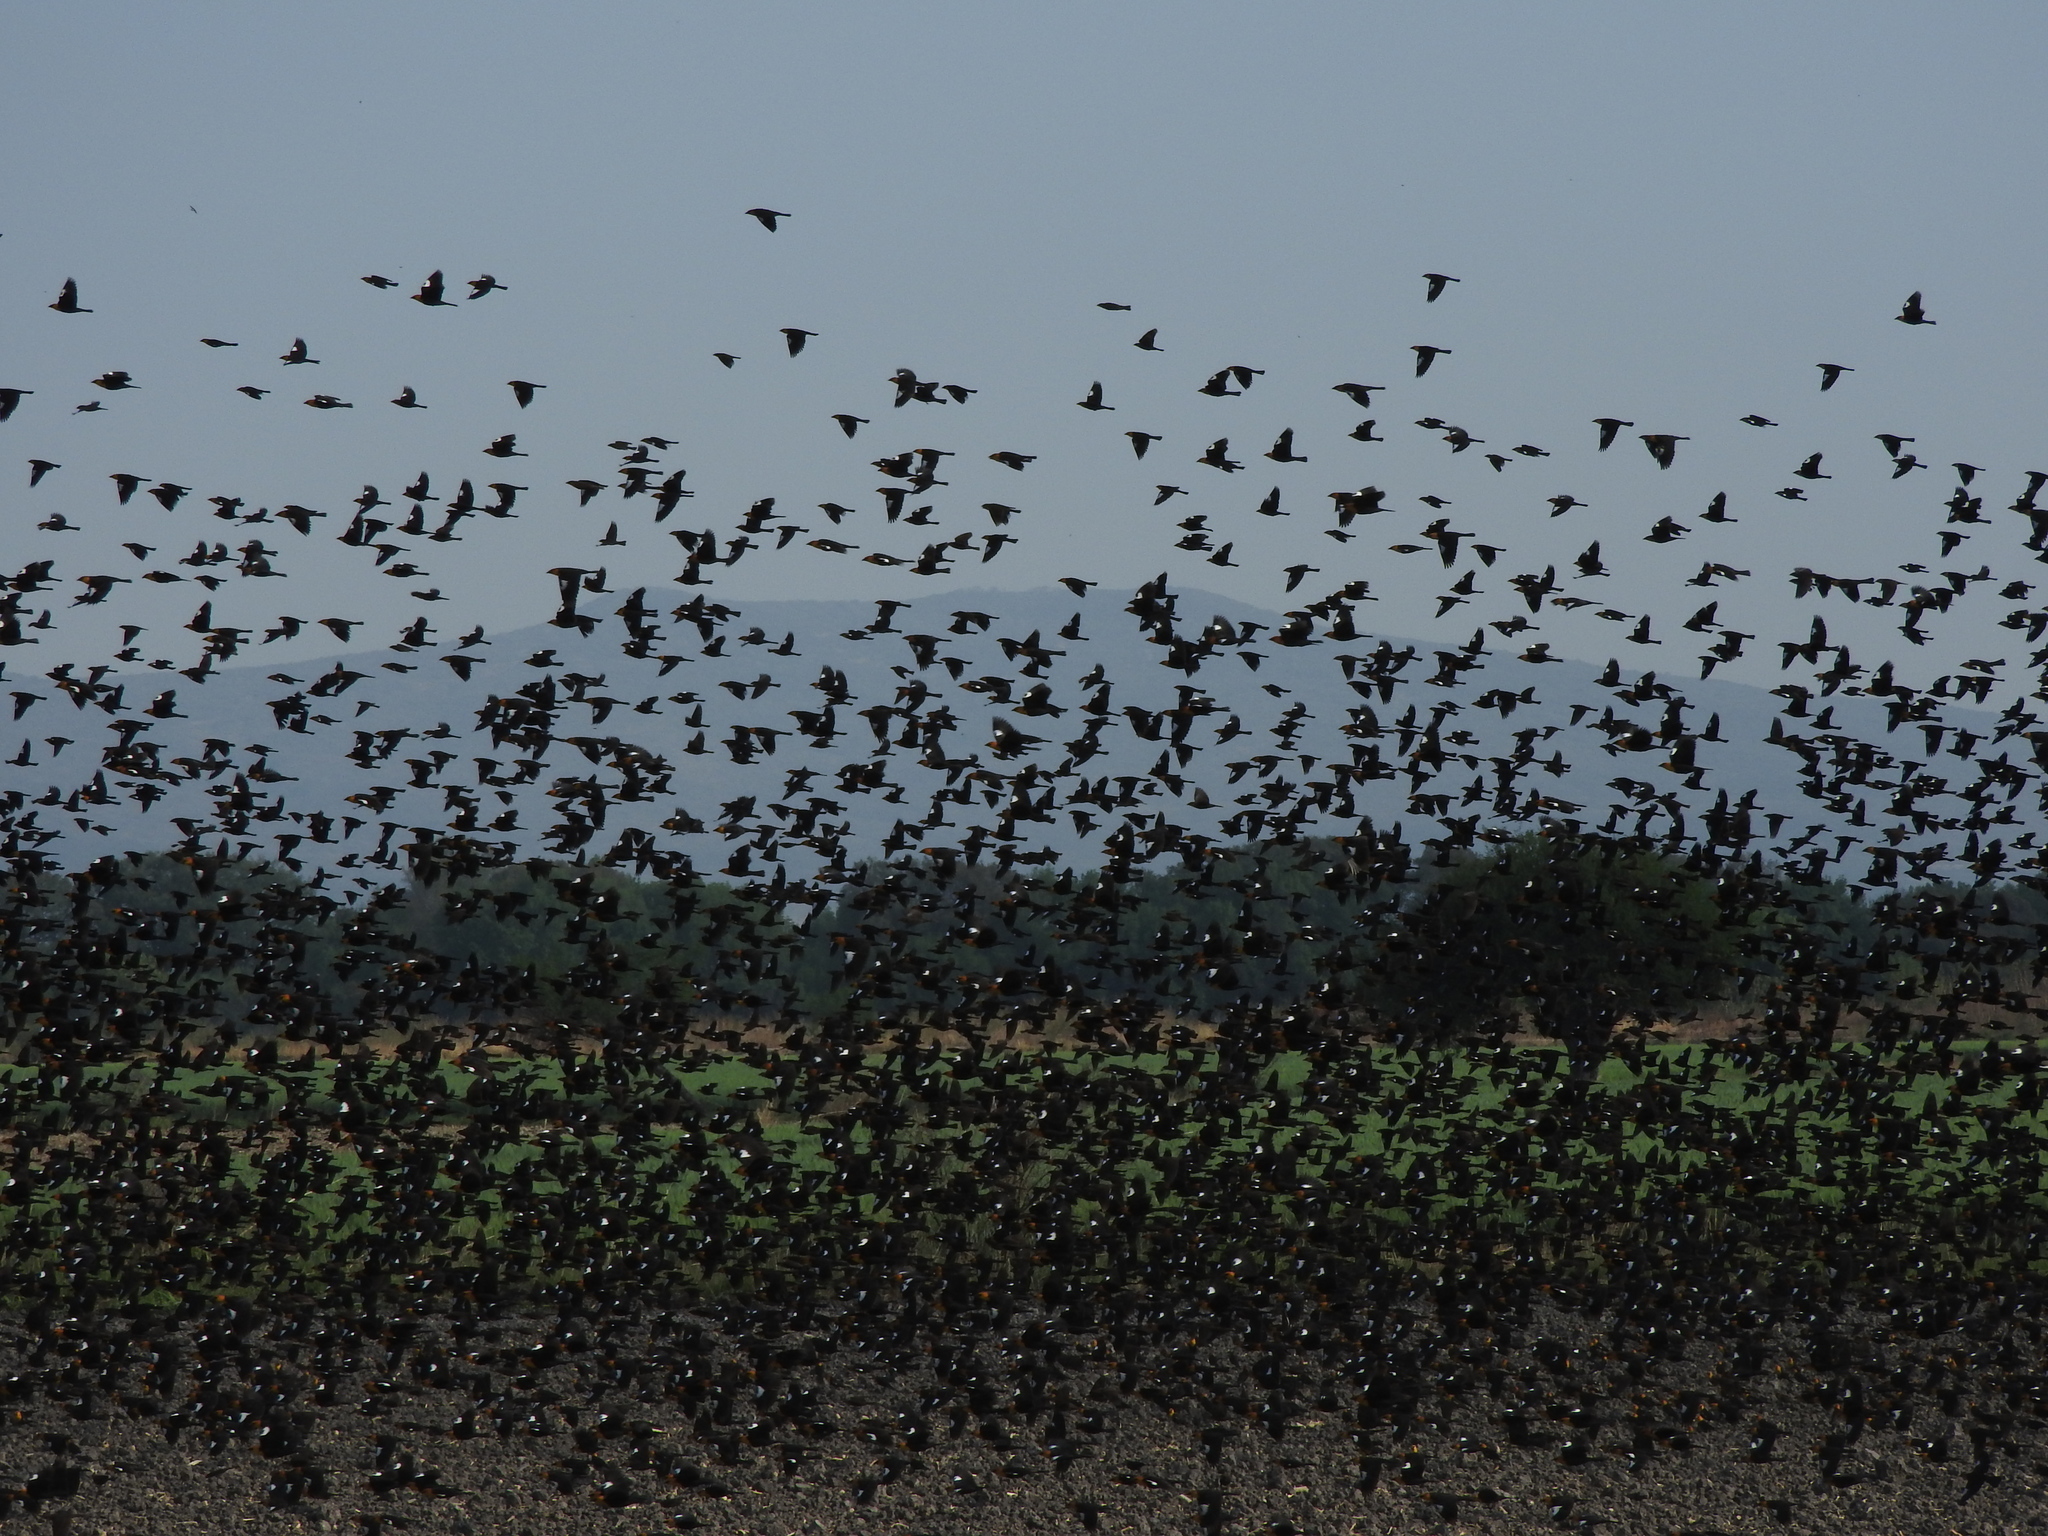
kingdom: Animalia
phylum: Chordata
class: Aves
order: Passeriformes
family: Icteridae
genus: Xanthocephalus
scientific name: Xanthocephalus xanthocephalus
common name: Yellow-headed blackbird
